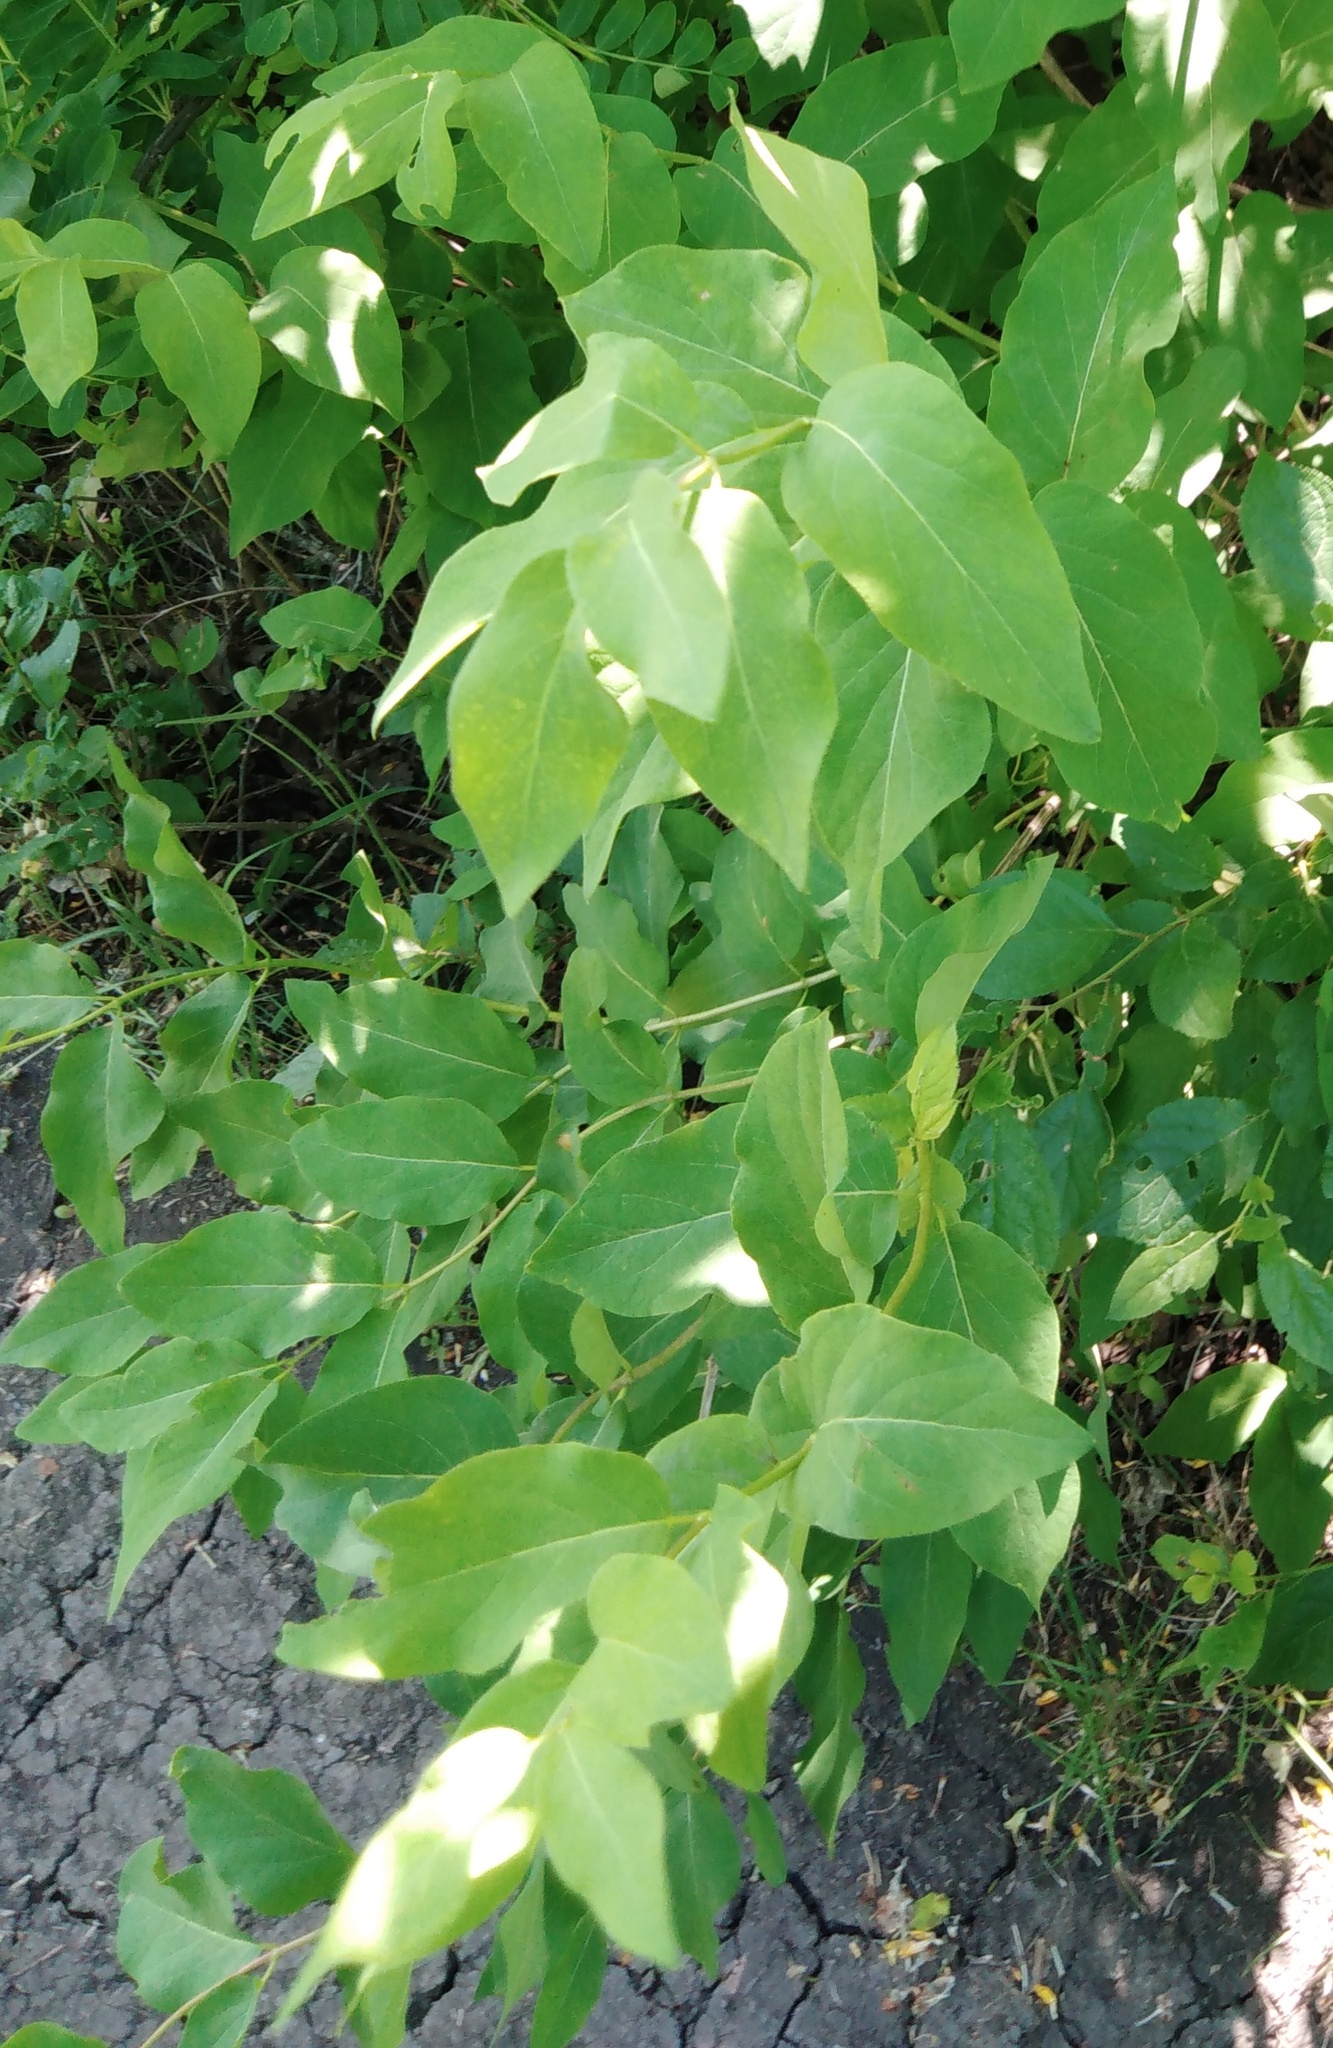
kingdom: Plantae
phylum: Tracheophyta
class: Magnoliopsida
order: Dipsacales
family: Caprifoliaceae
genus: Lonicera
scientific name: Lonicera tatarica
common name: Tatarian honeysuckle
